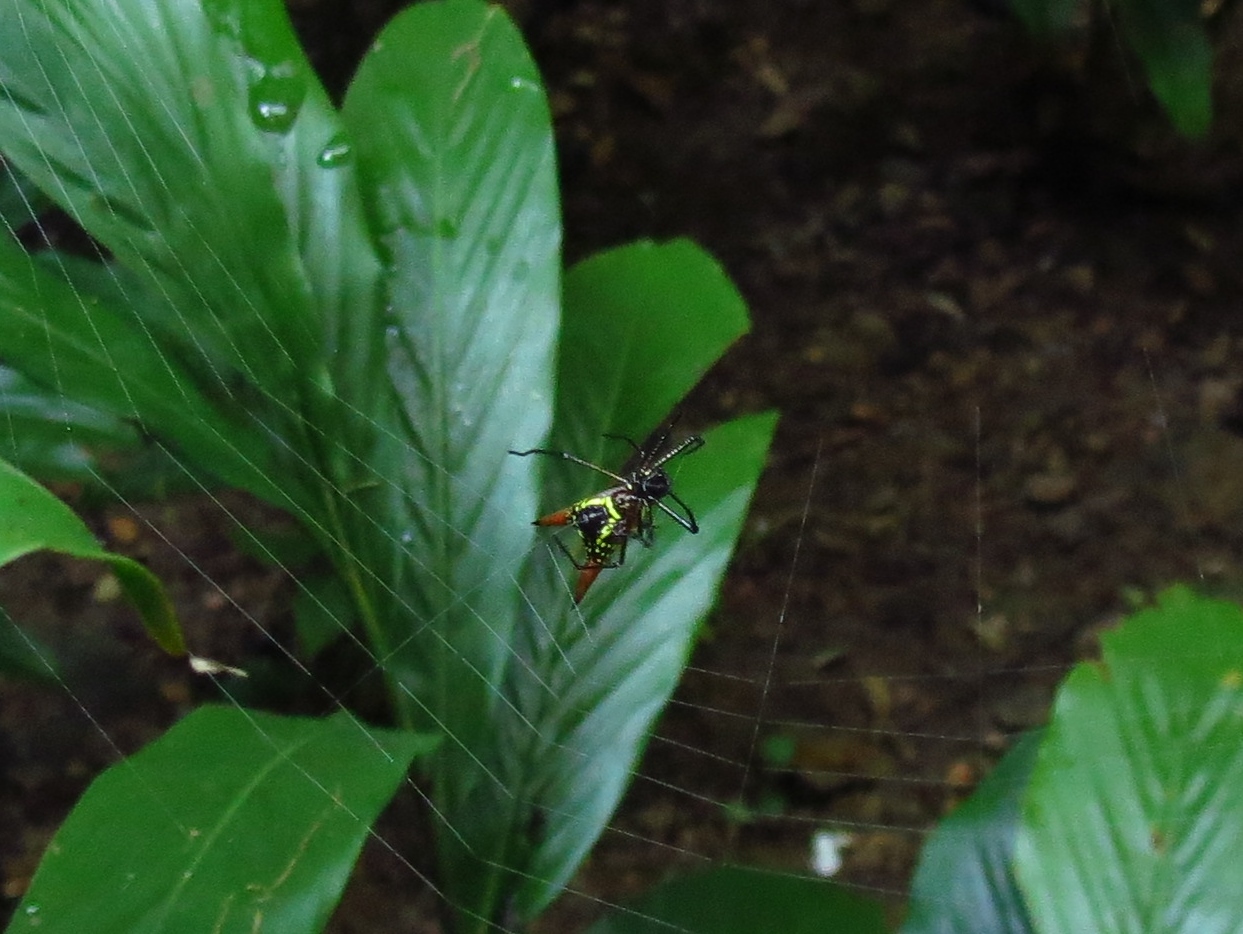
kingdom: Animalia
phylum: Arthropoda
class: Arachnida
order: Araneae
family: Araneidae
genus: Micrathena
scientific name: Micrathena sexspinosa
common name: Orb weavers
